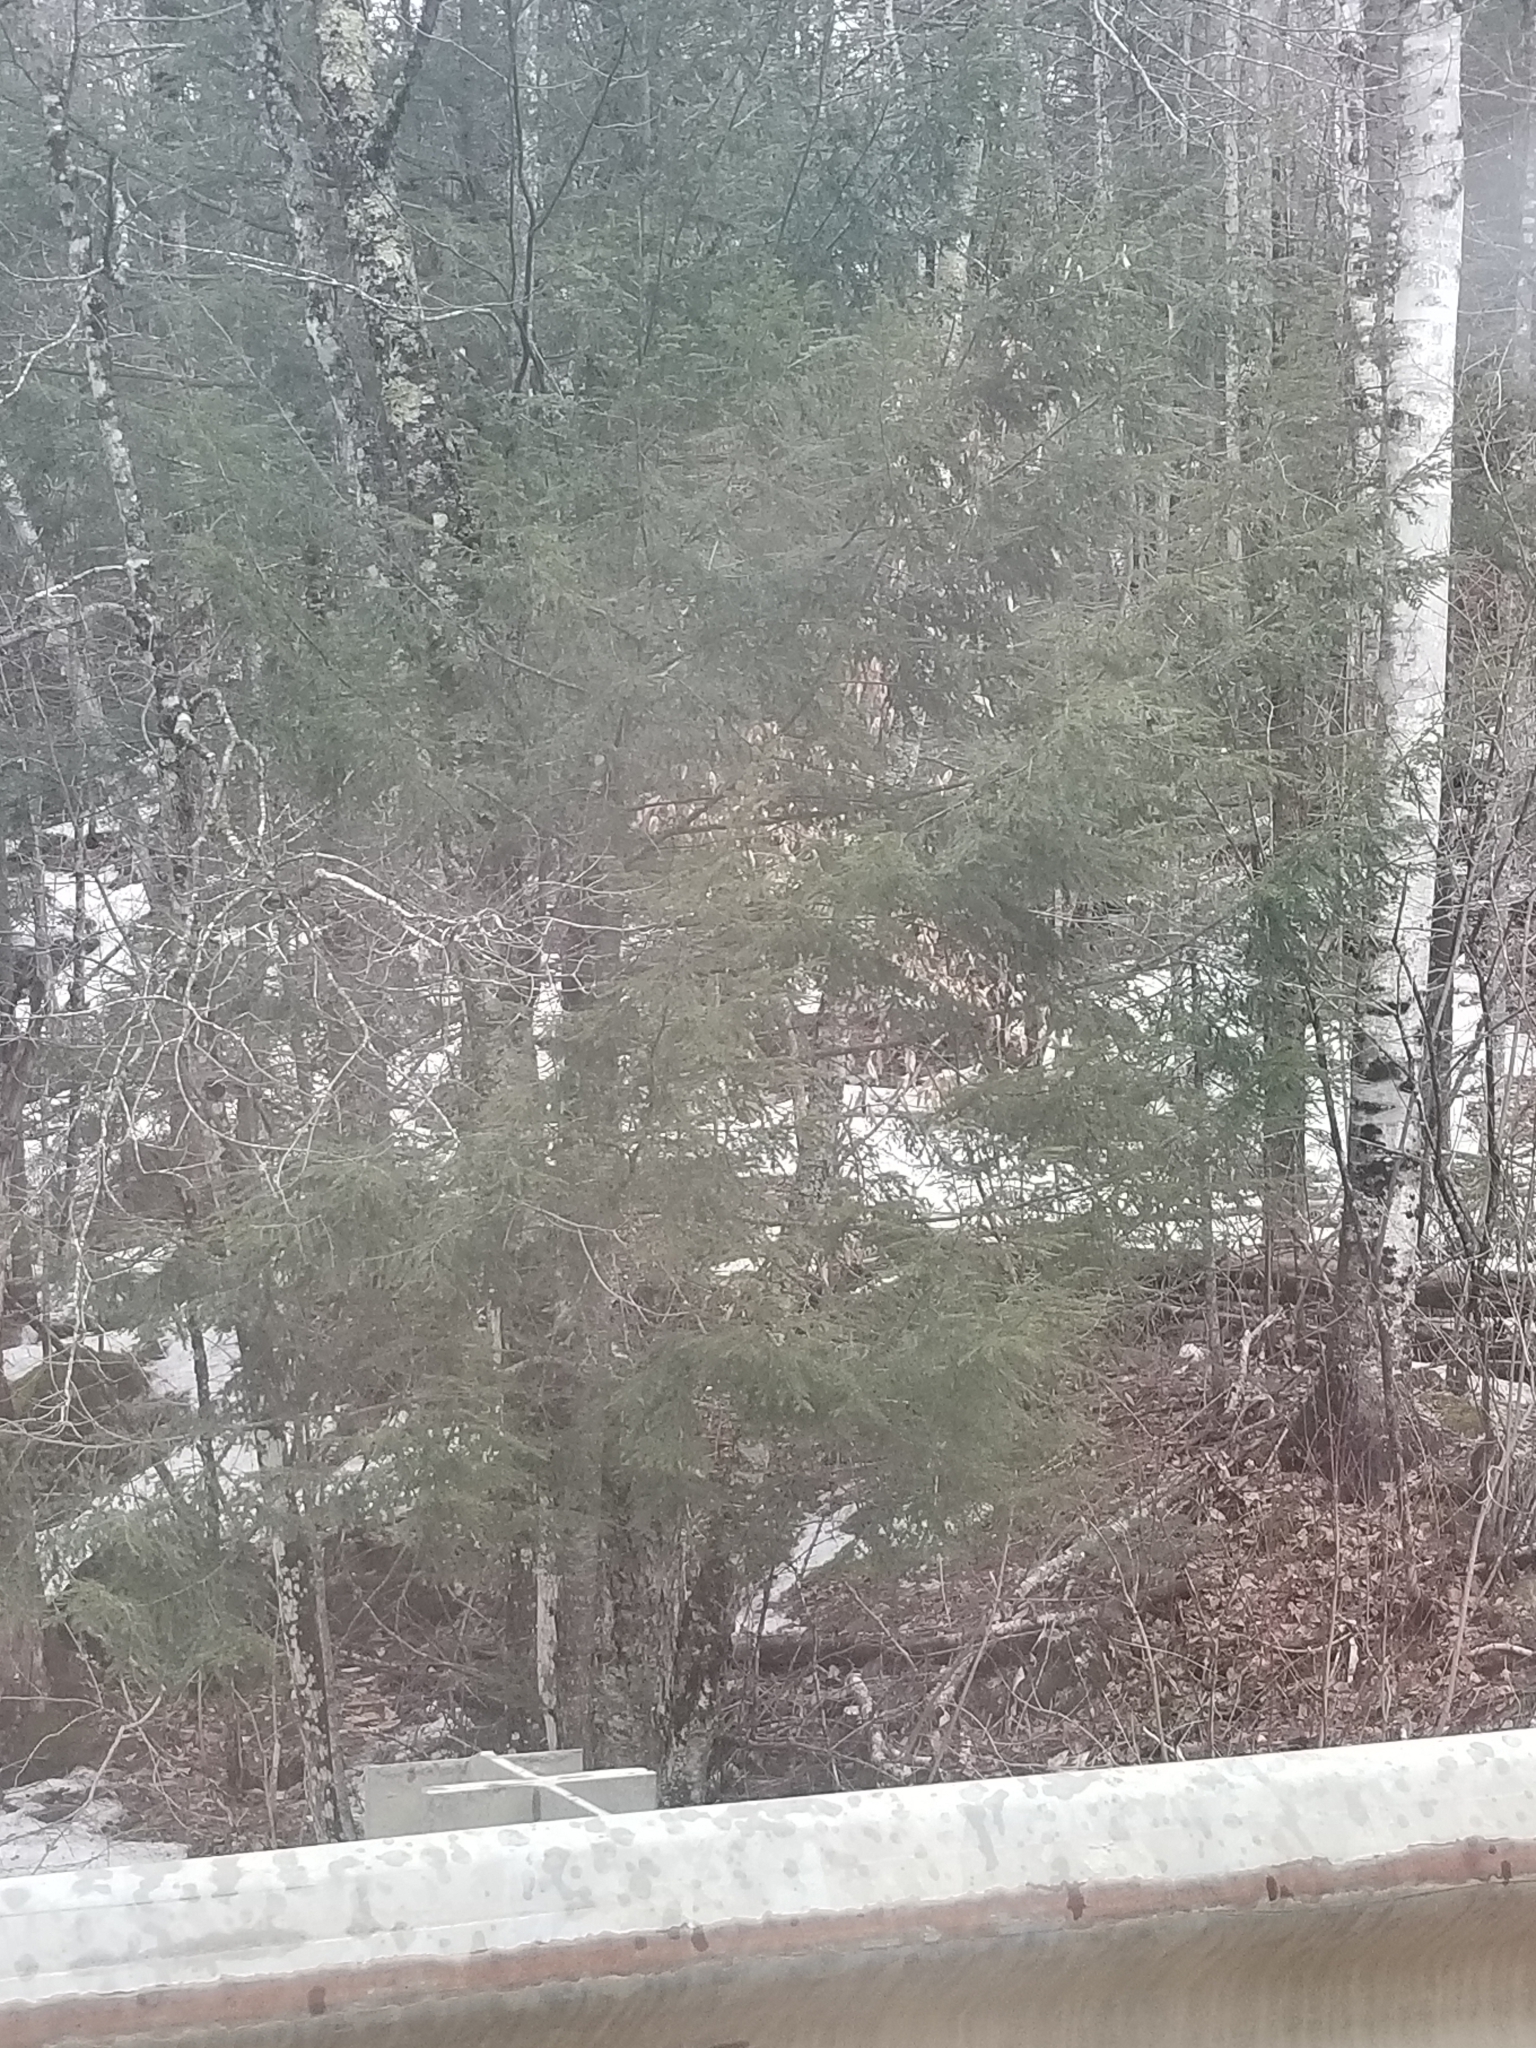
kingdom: Plantae
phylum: Tracheophyta
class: Pinopsida
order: Pinales
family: Pinaceae
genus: Tsuga
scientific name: Tsuga canadensis
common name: Eastern hemlock
